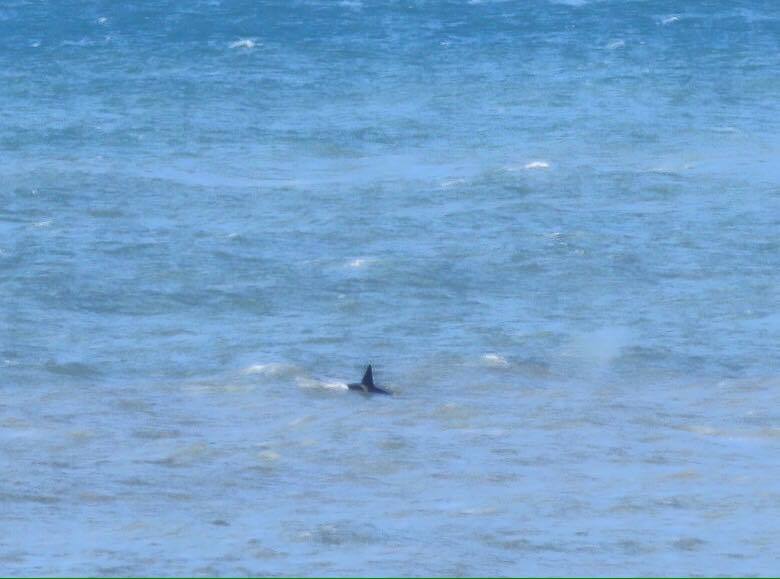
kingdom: Animalia
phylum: Chordata
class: Mammalia
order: Cetacea
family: Delphinidae
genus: Orcinus
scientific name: Orcinus orca
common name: Killer whale
